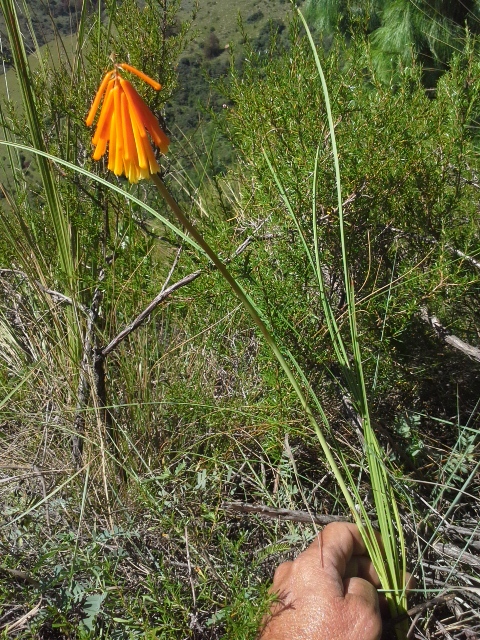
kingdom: Plantae
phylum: Tracheophyta
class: Liliopsida
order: Asparagales
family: Asphodelaceae
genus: Kniphofia
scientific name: Kniphofia galpinii
